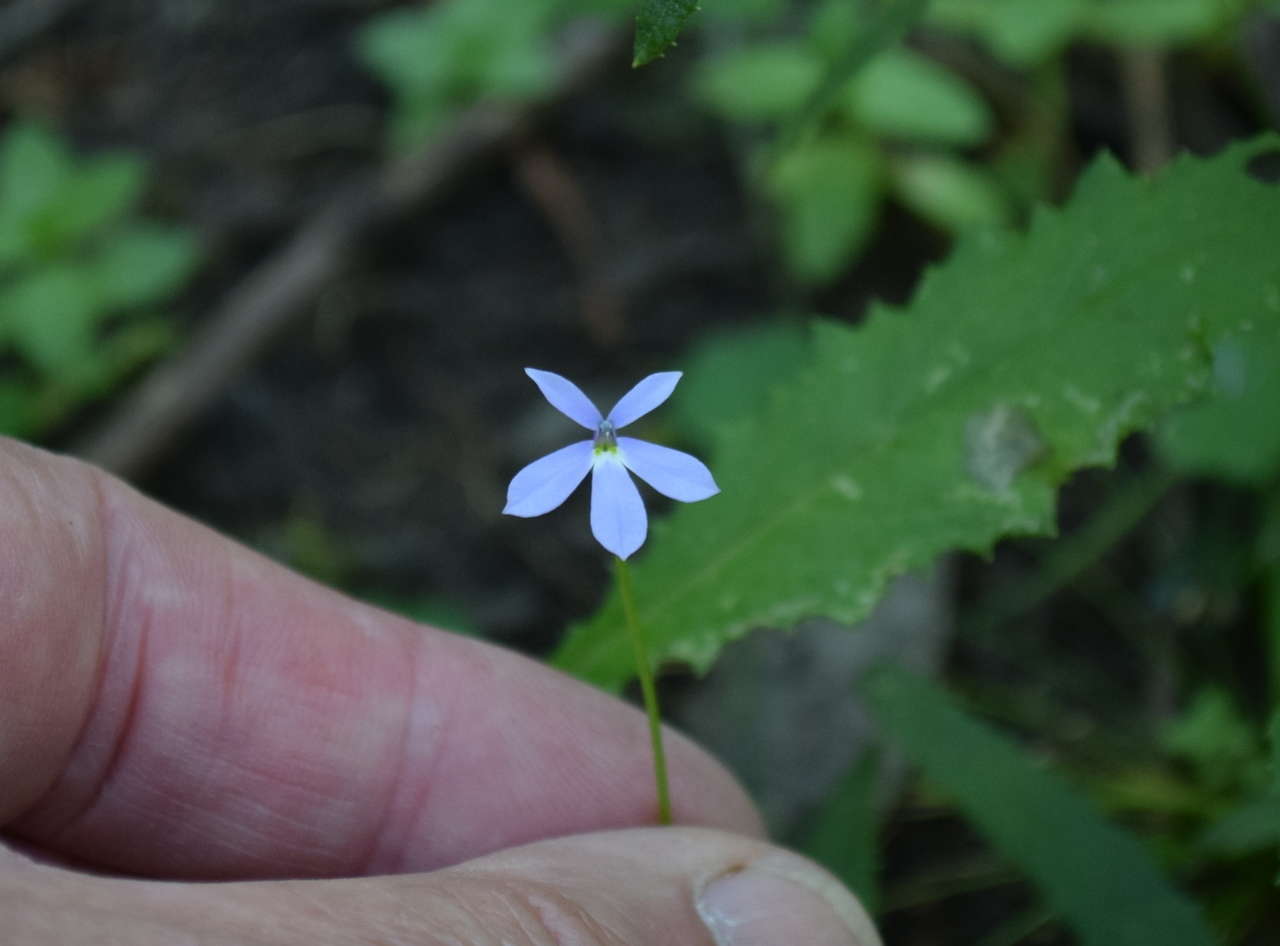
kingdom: Plantae
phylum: Tracheophyta
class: Magnoliopsida
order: Asterales
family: Campanulaceae
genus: Lobelia
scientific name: Lobelia beaugleholei
